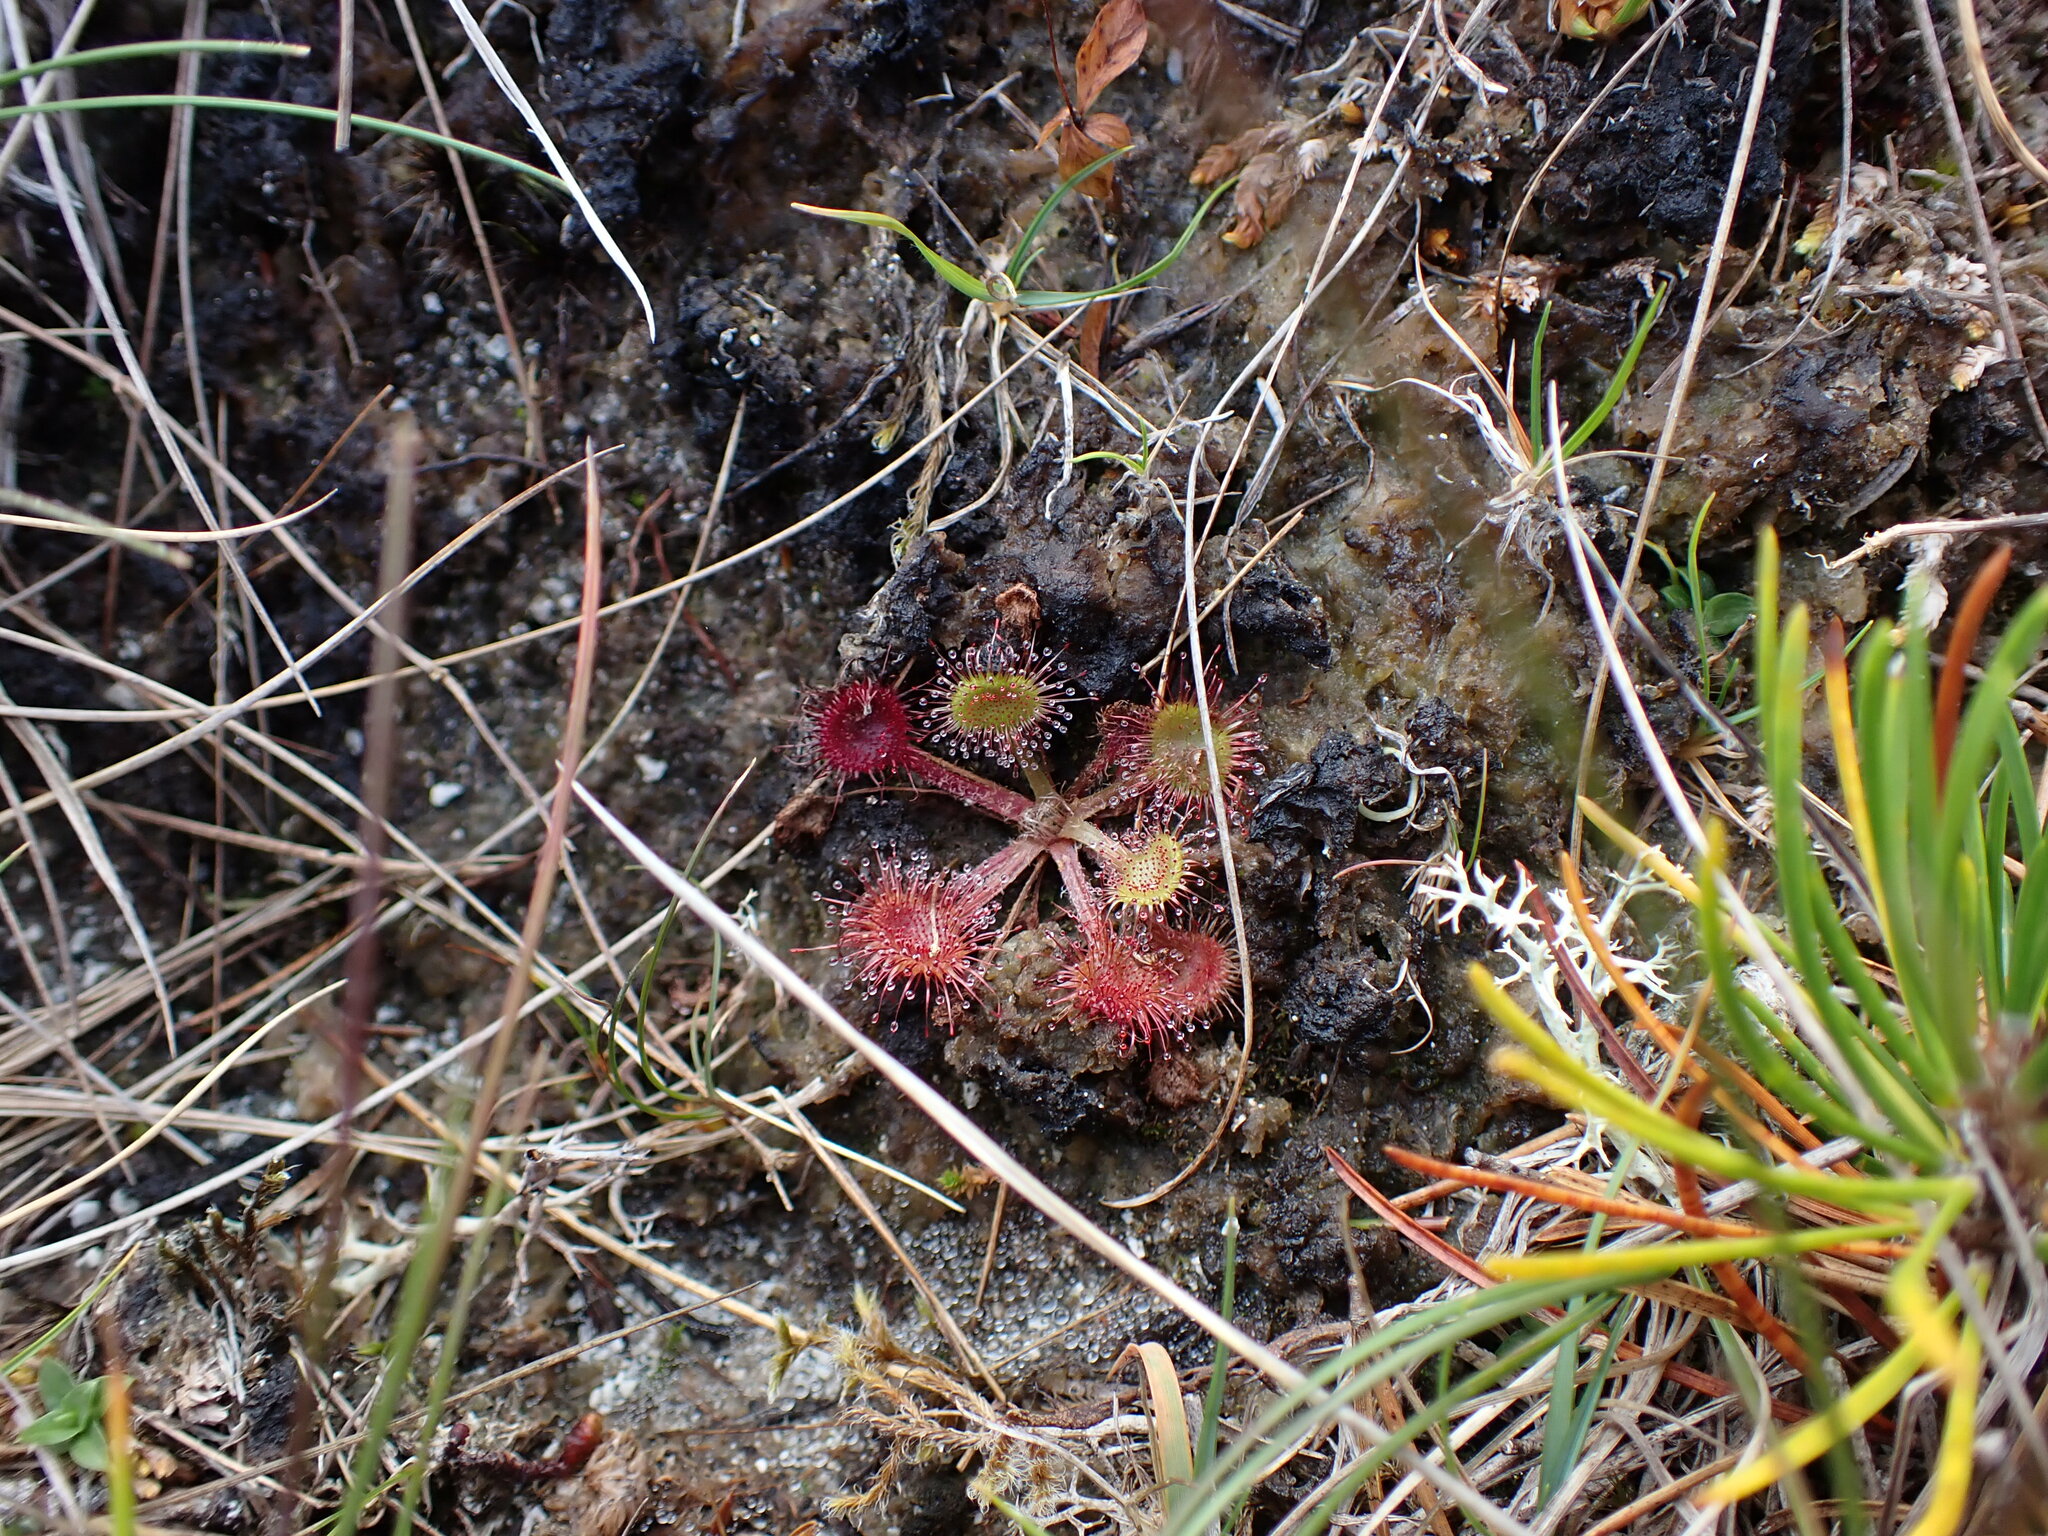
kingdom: Plantae
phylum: Tracheophyta
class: Magnoliopsida
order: Caryophyllales
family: Droseraceae
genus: Drosera
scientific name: Drosera rotundifolia
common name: Round-leaved sundew
